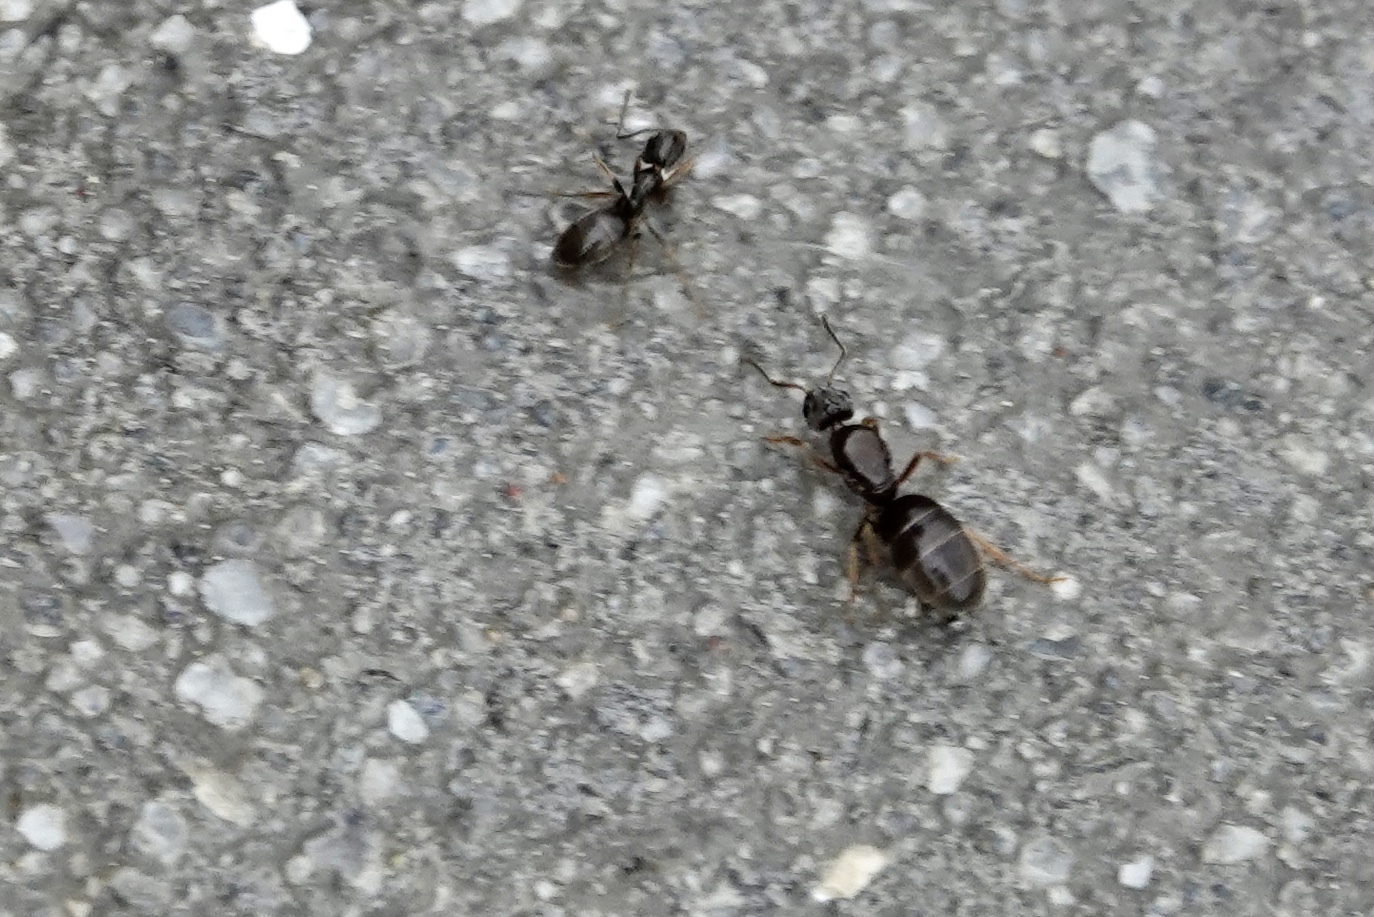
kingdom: Animalia
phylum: Arthropoda
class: Insecta
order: Hymenoptera
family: Formicidae
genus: Tapinoma
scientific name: Tapinoma sessile
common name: Odorous house ant
